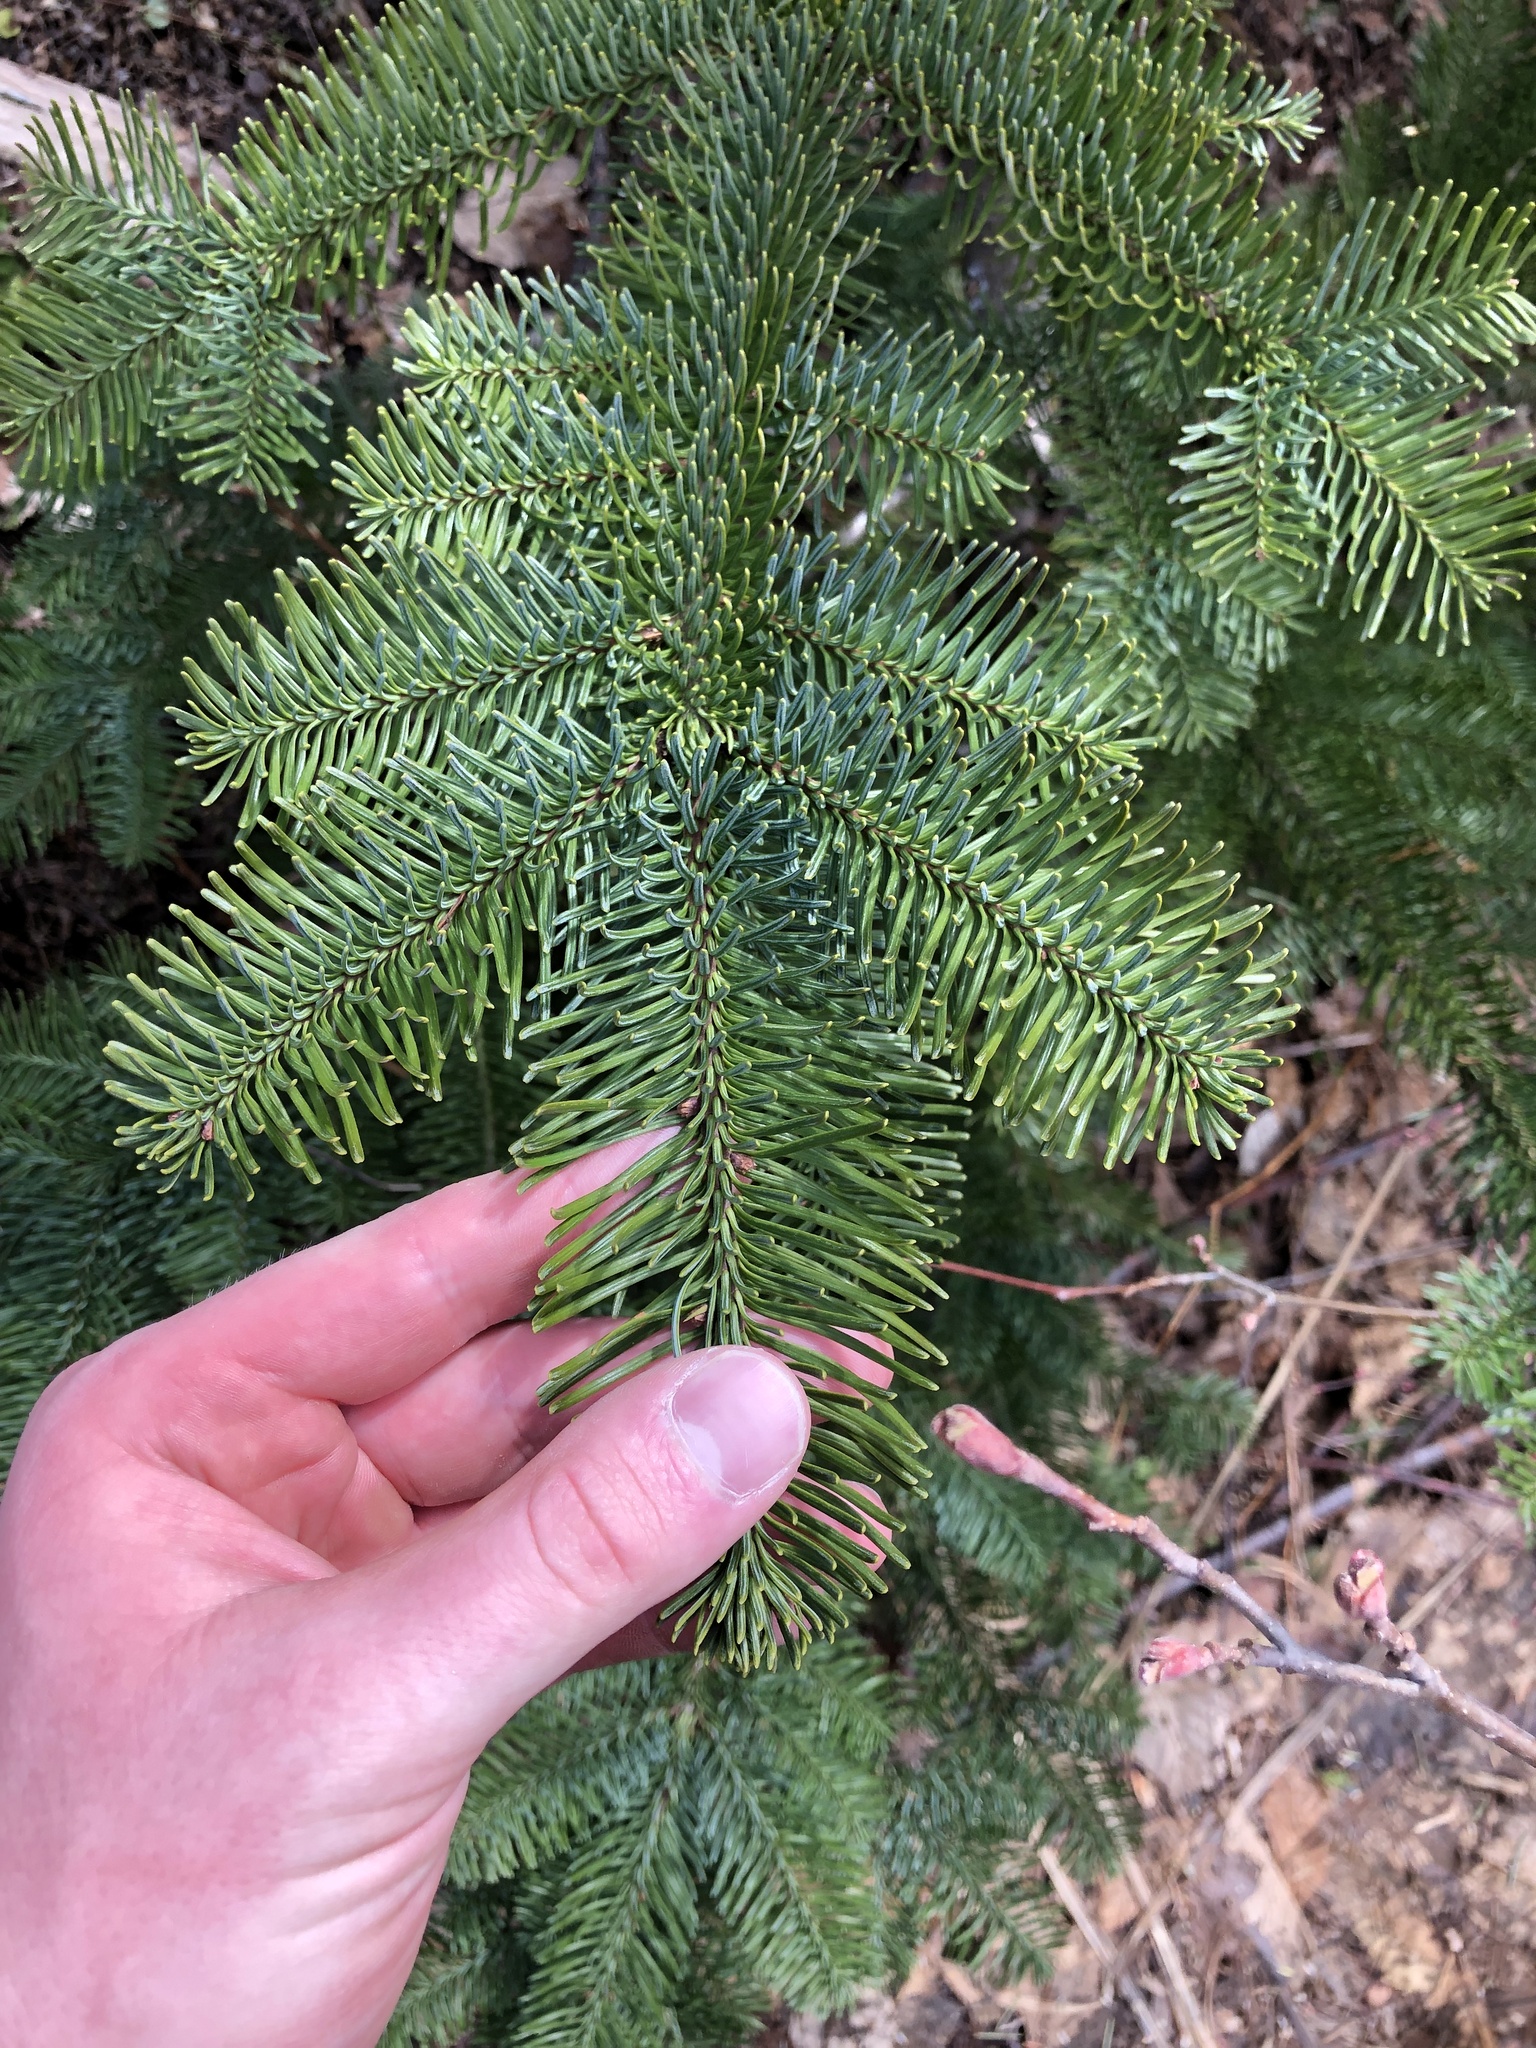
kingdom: Plantae
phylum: Tracheophyta
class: Pinopsida
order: Pinales
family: Pinaceae
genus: Abies
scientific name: Abies procera
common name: Noble fir
